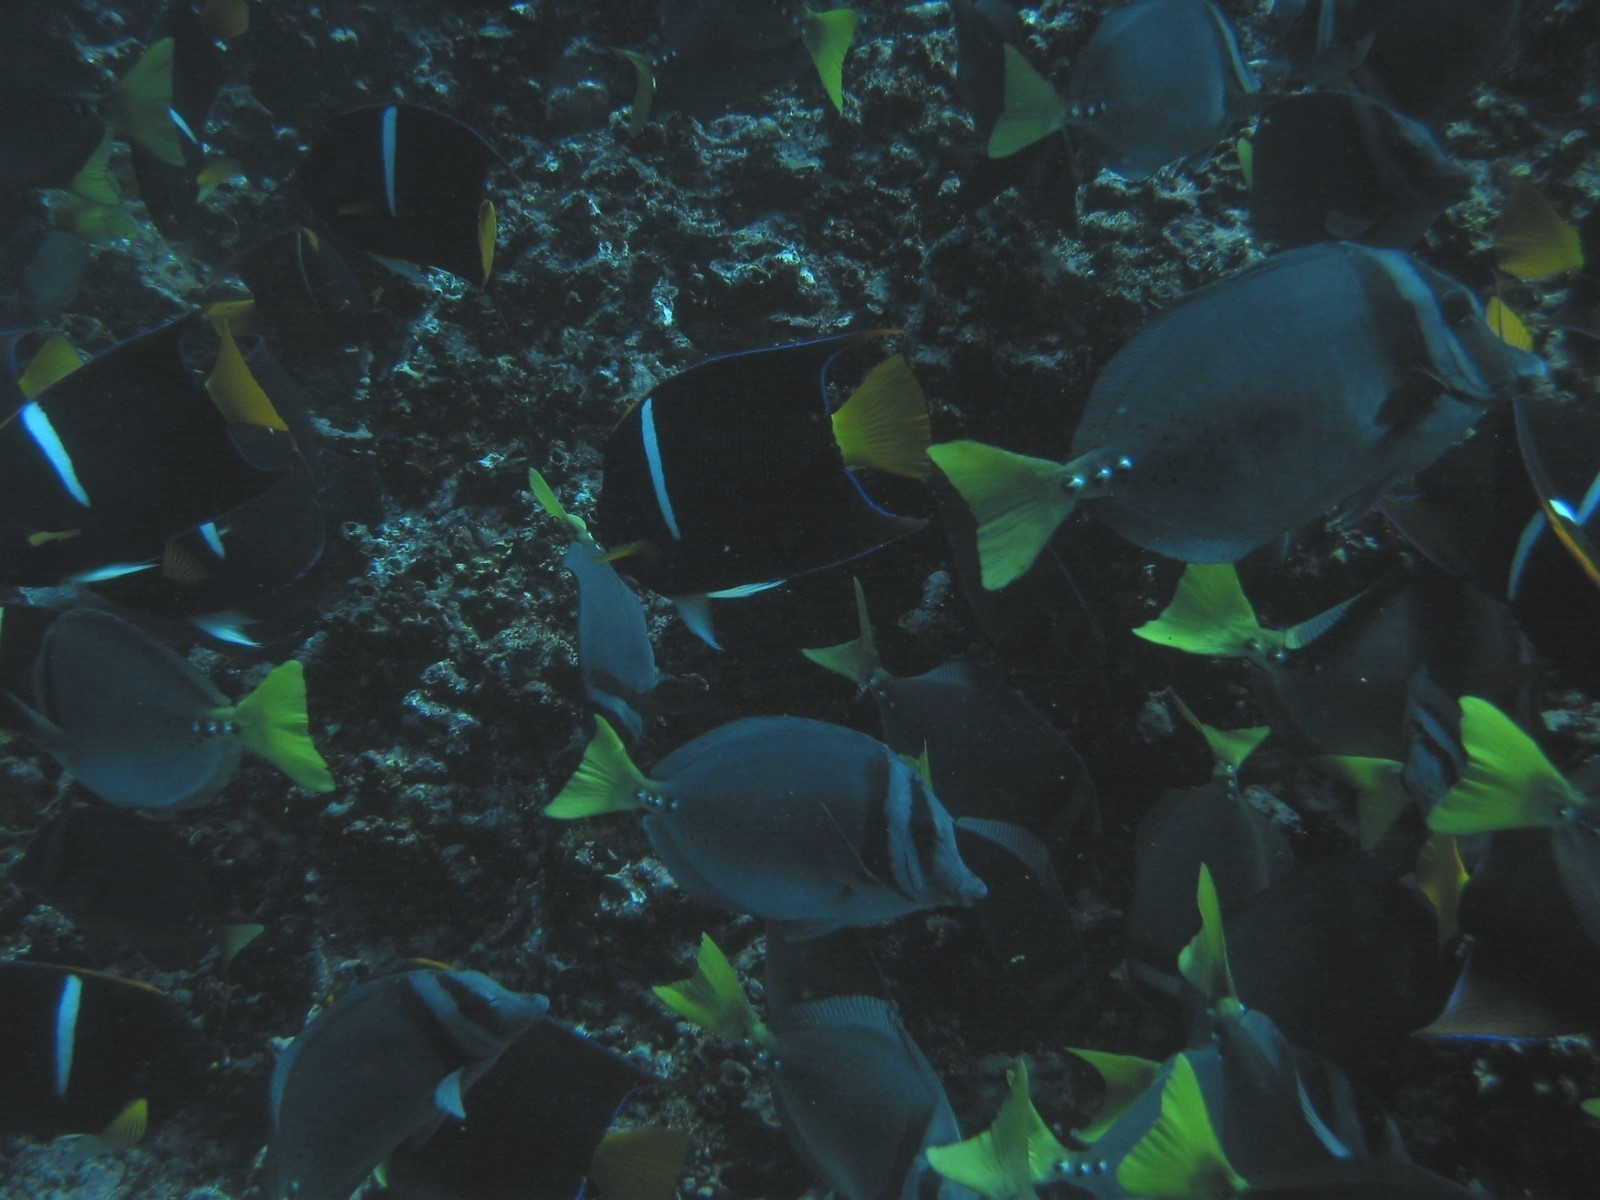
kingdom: Animalia
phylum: Chordata
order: Perciformes
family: Acanthuridae
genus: Prionurus
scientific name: Prionurus laticlavius
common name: Razor surgeonfish
